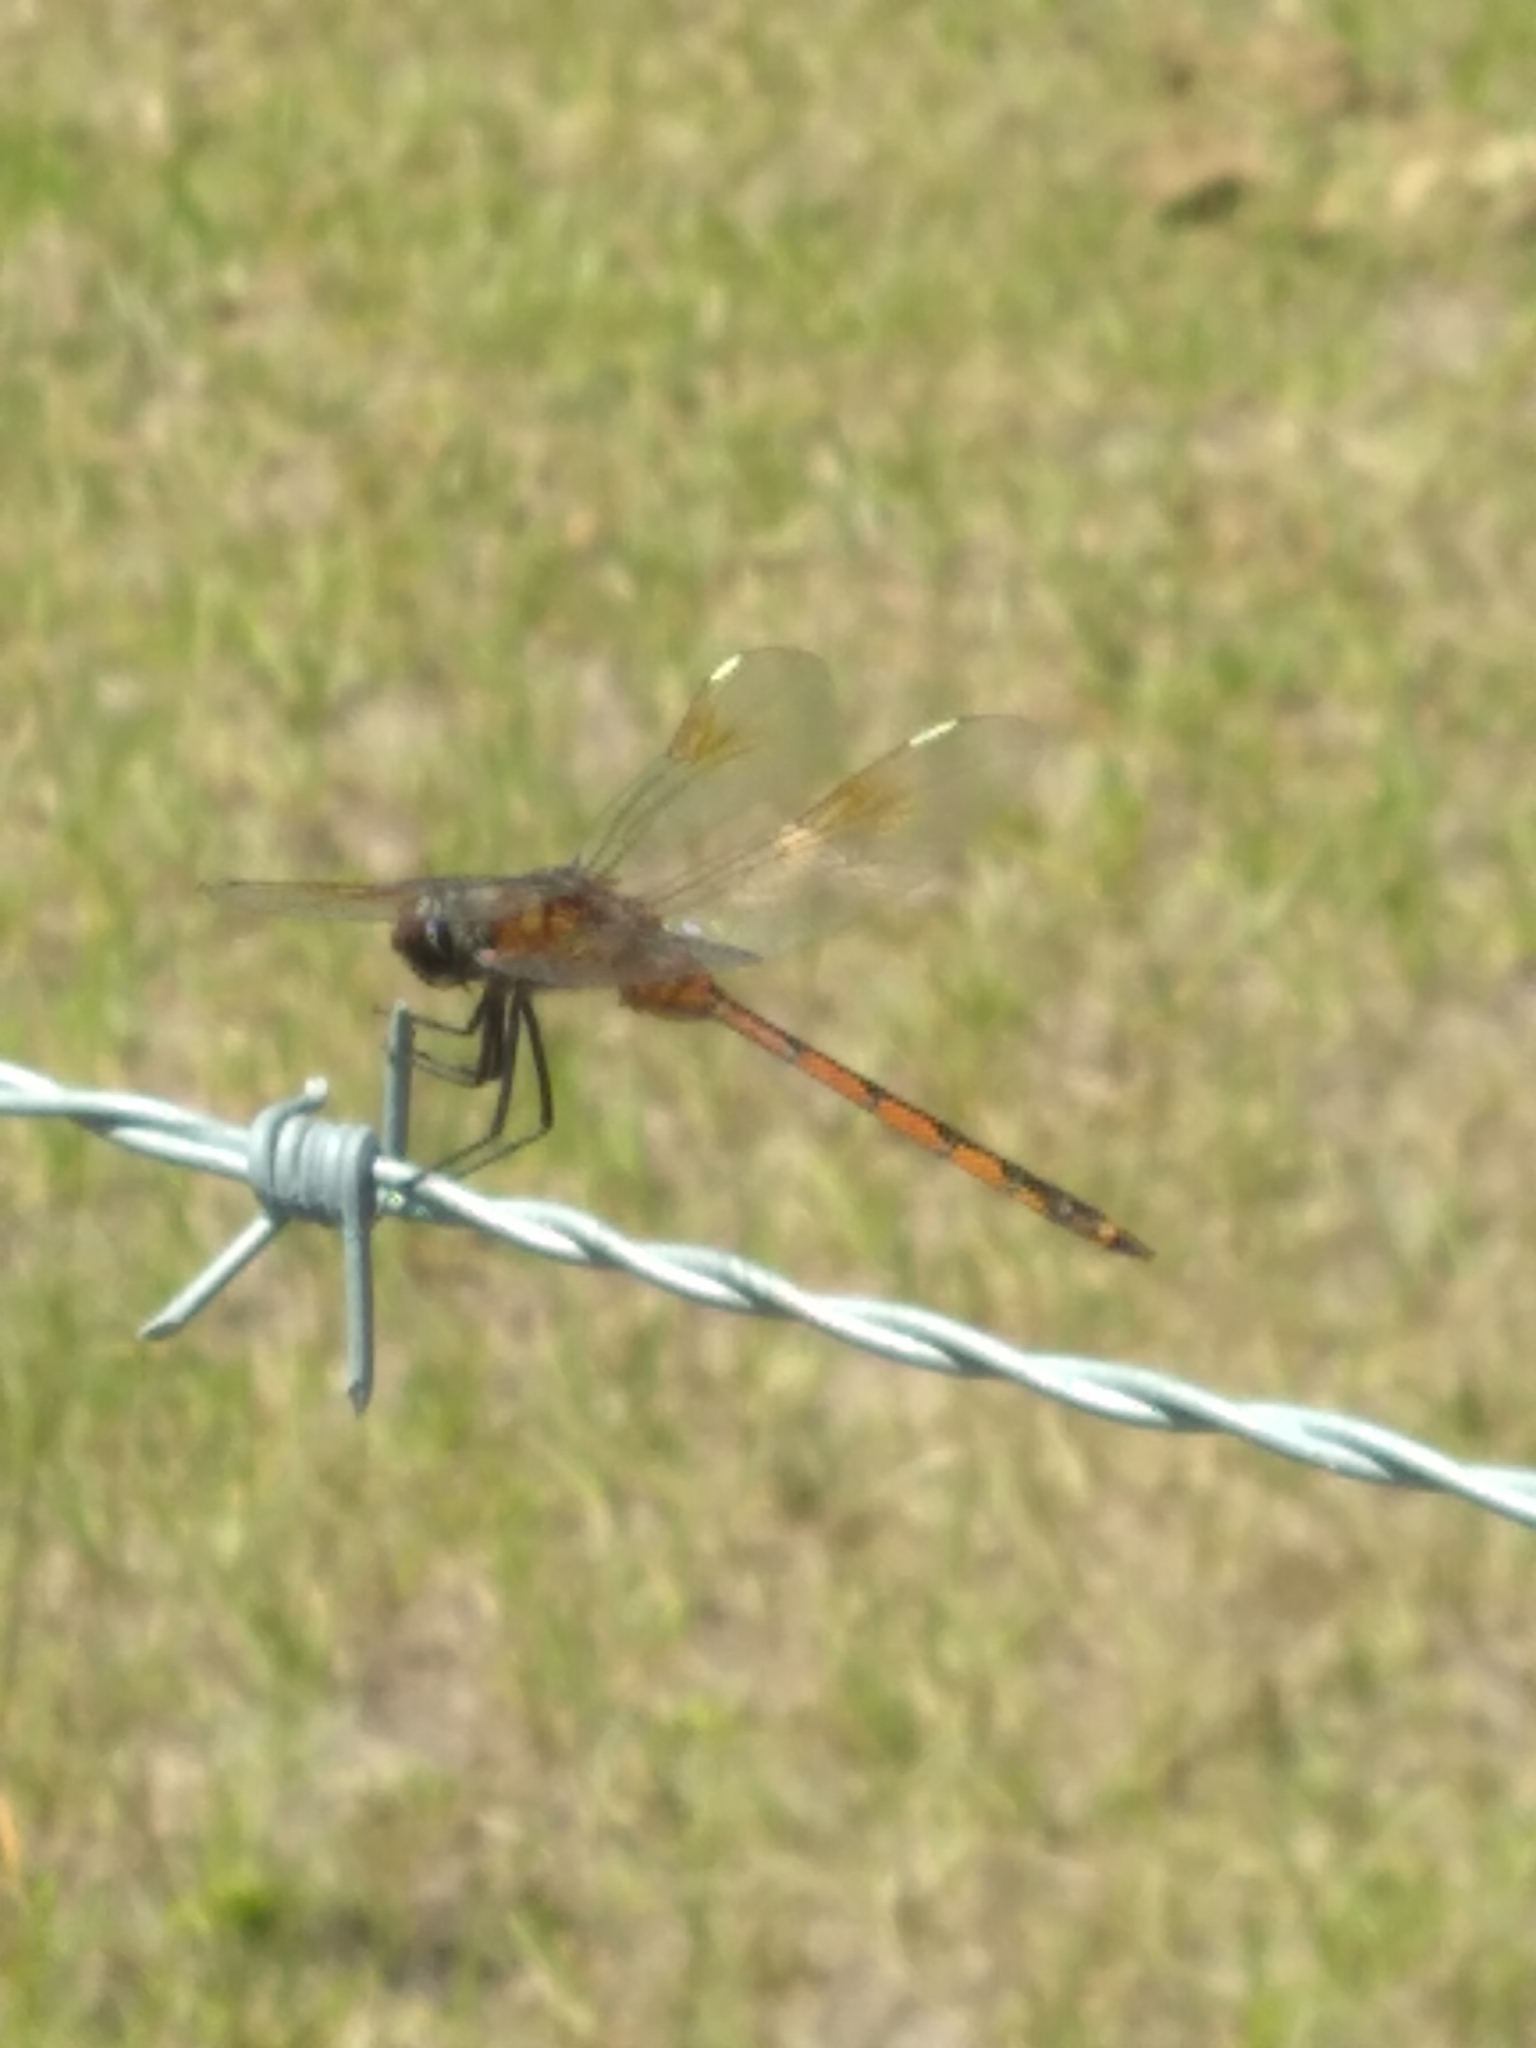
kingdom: Animalia
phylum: Arthropoda
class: Insecta
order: Odonata
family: Libellulidae
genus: Brachymesia
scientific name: Brachymesia gravida
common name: Four-spotted pennant
